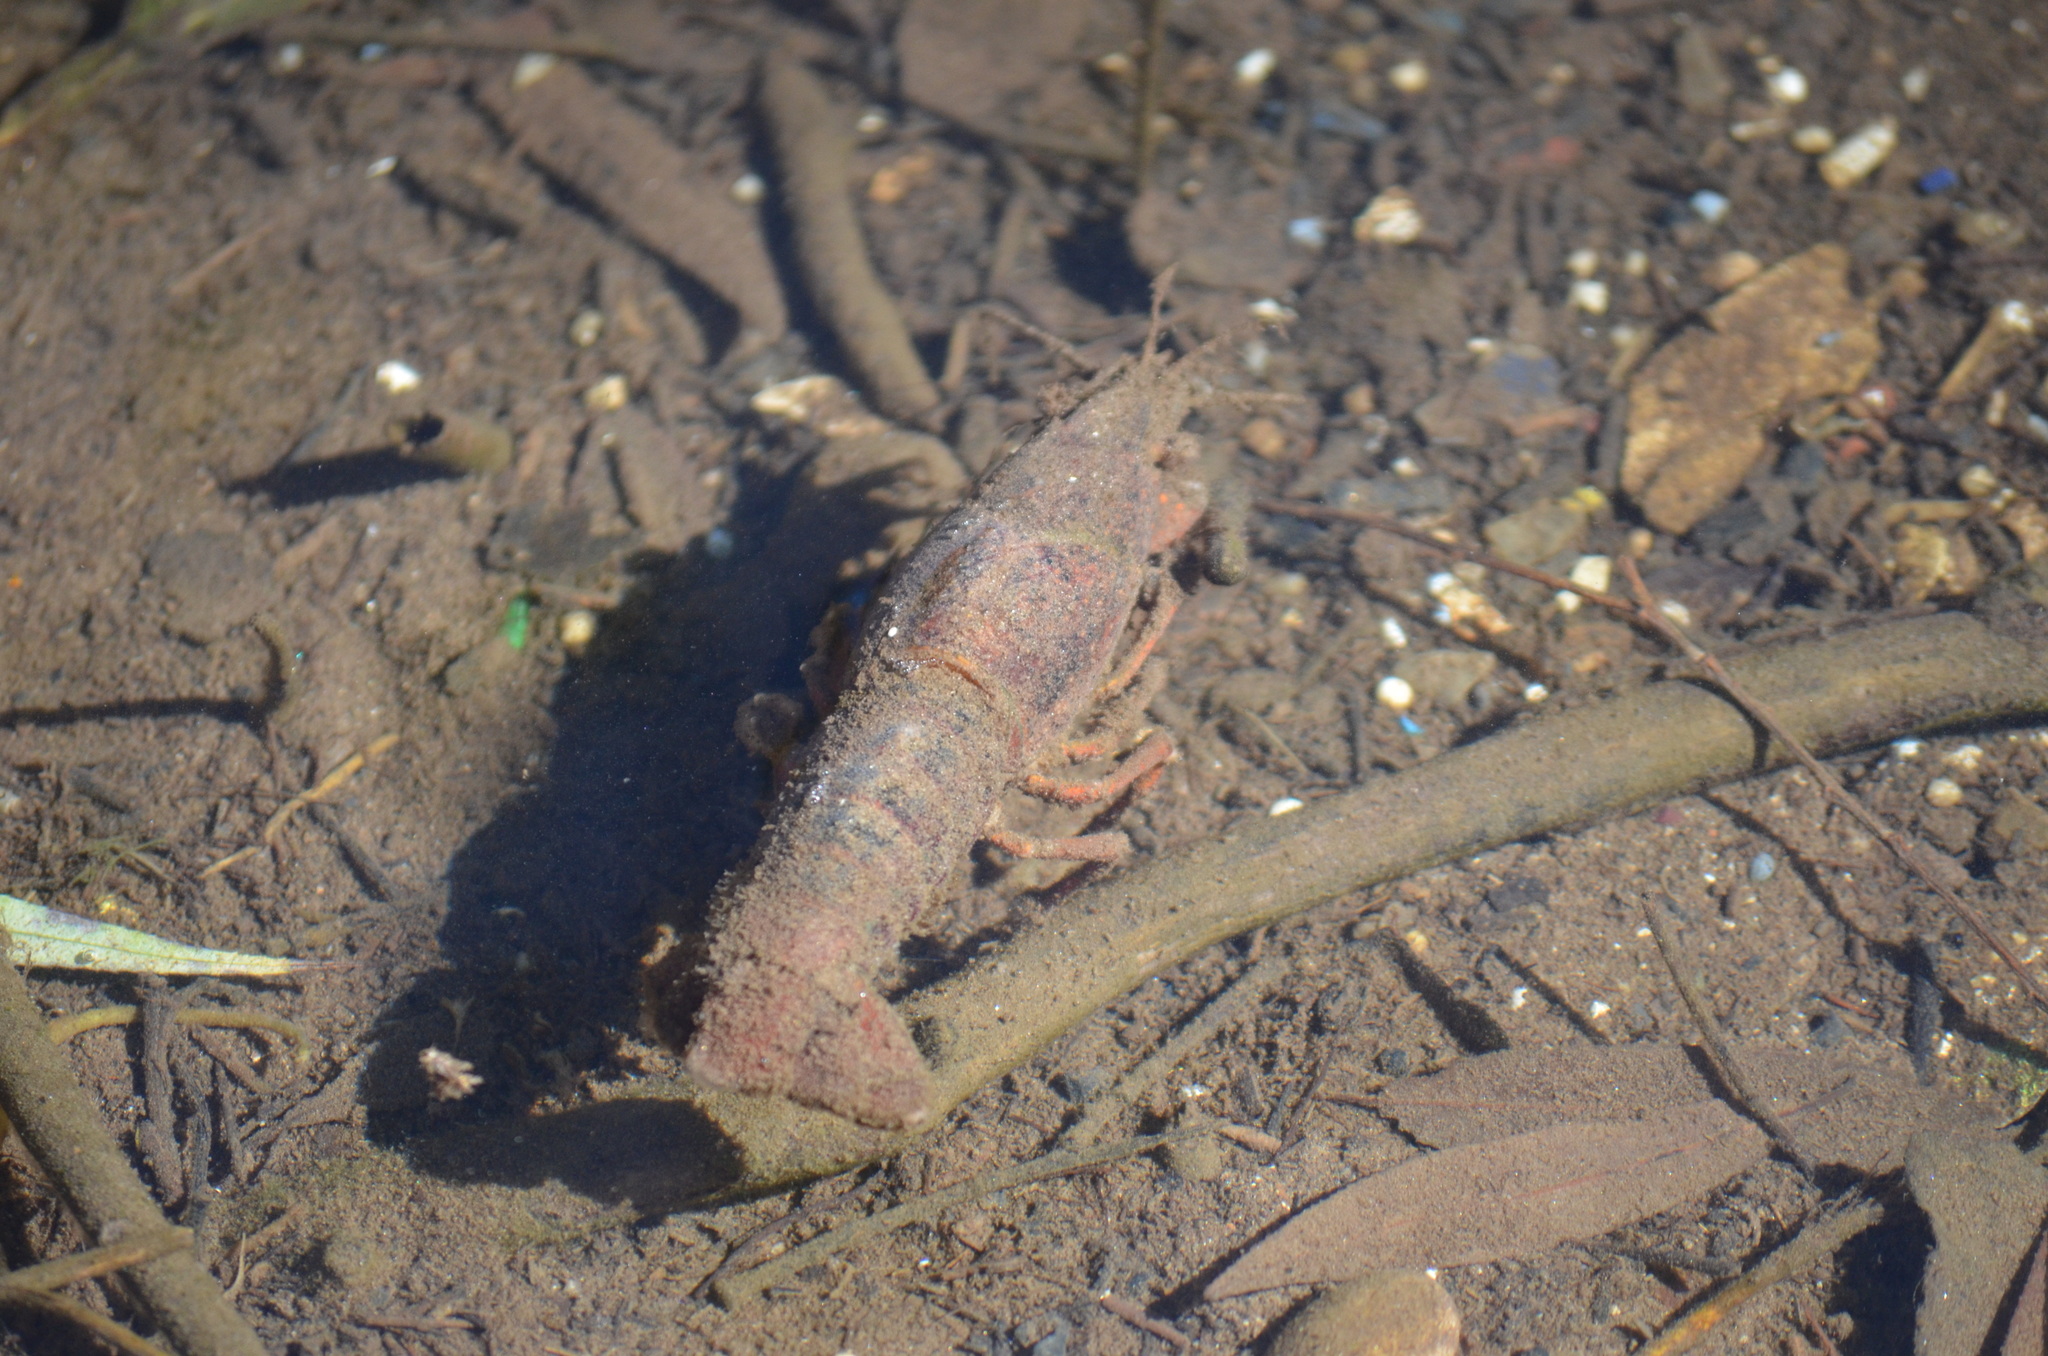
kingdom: Animalia
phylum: Arthropoda
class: Malacostraca
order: Decapoda
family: Cambaridae
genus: Procambarus
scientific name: Procambarus clarkii
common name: Red swamp crayfish
